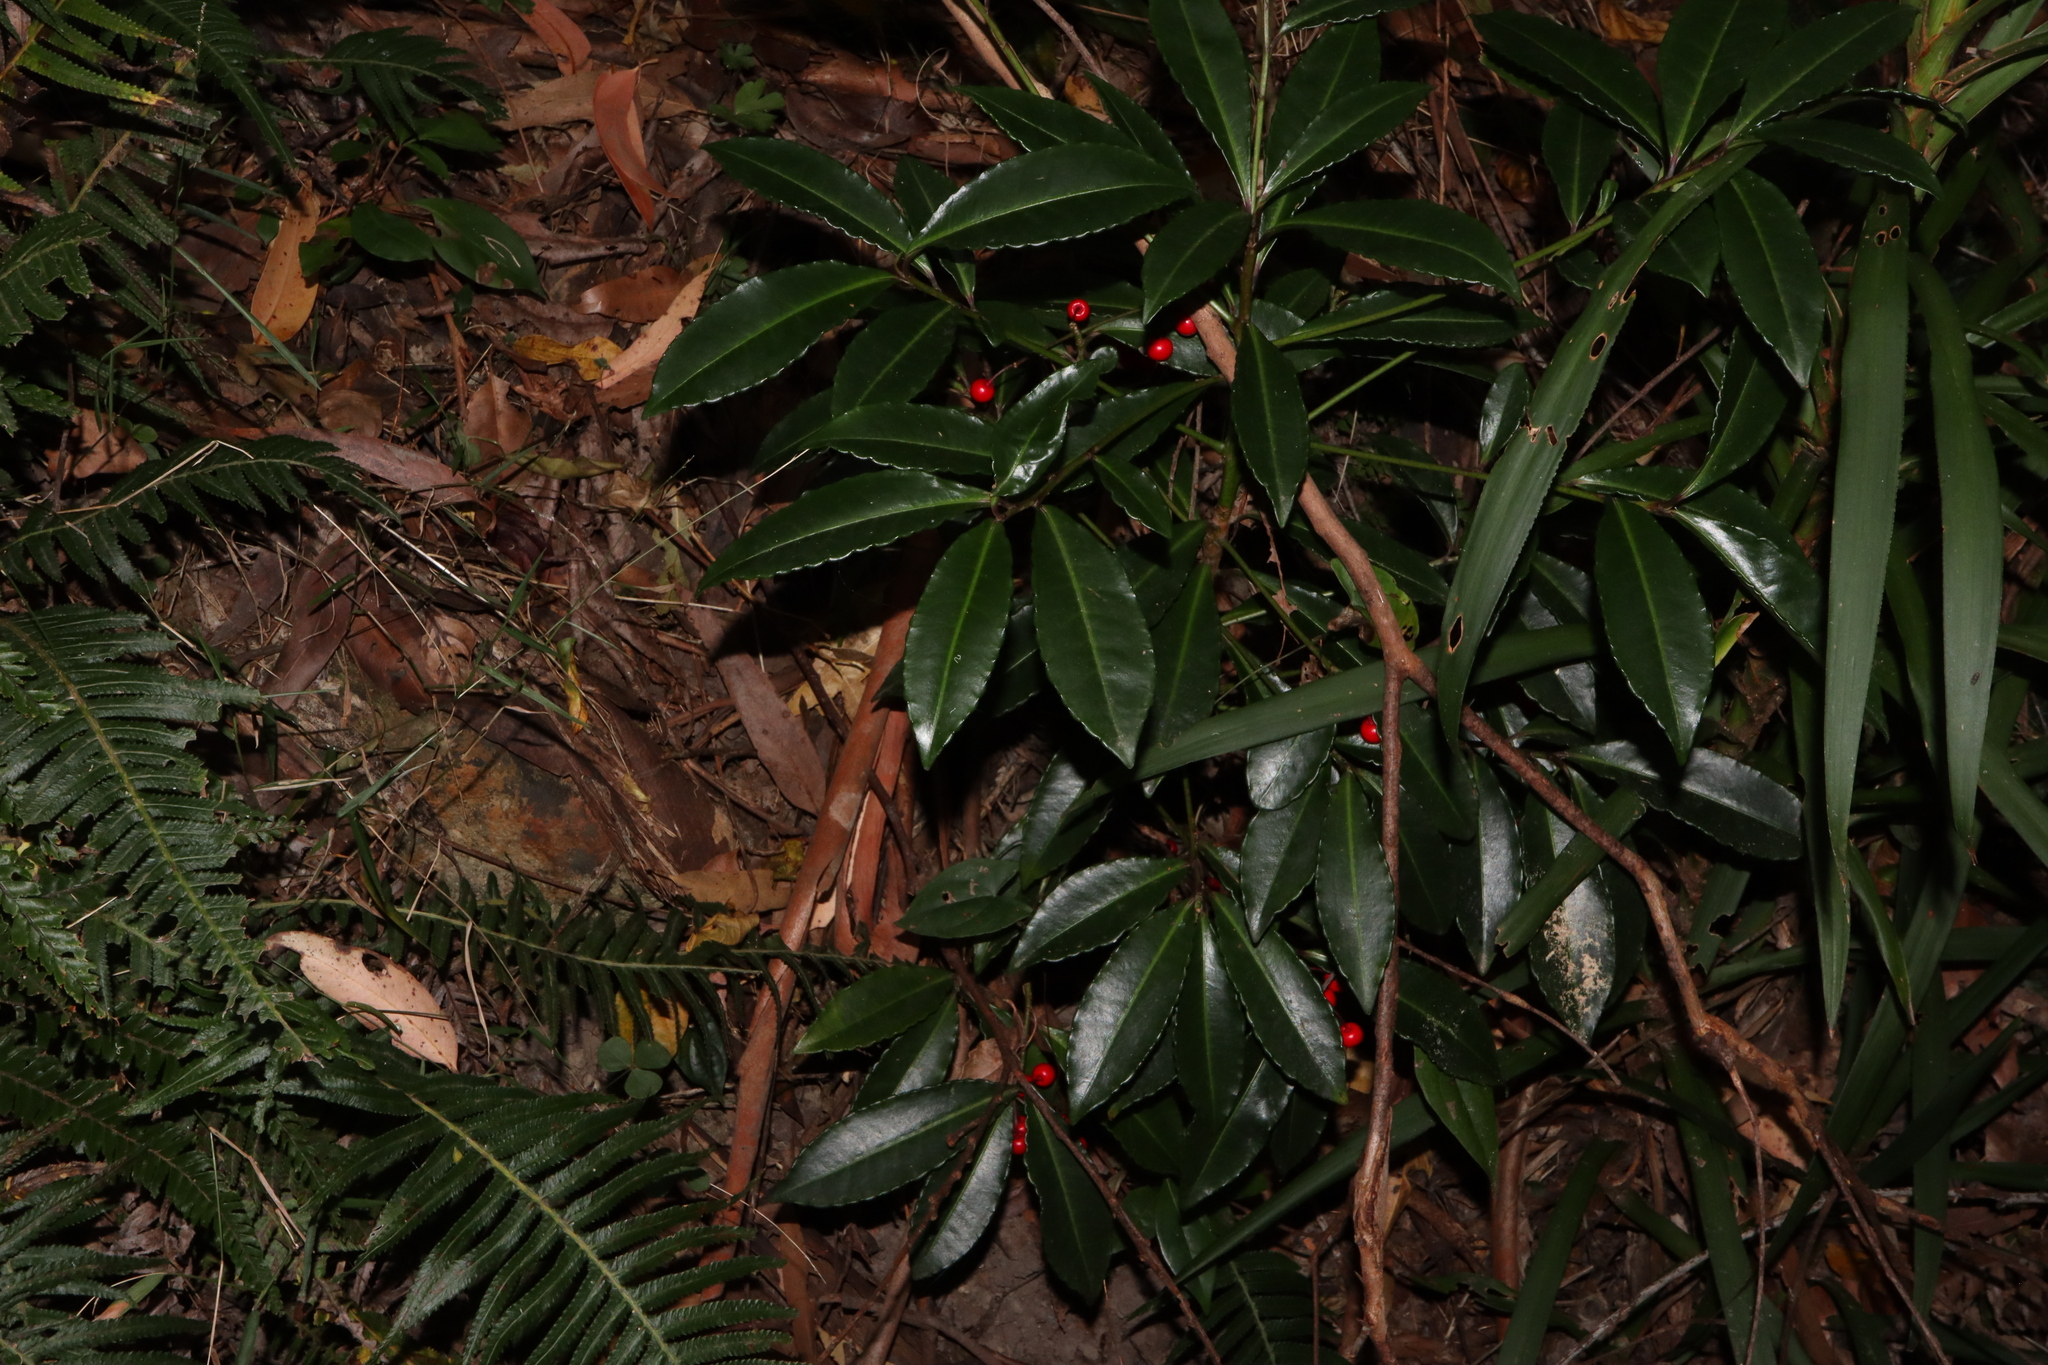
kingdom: Plantae
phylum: Tracheophyta
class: Magnoliopsida
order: Ericales
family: Primulaceae
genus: Ardisia
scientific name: Ardisia crenata
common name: Hen's eyes
